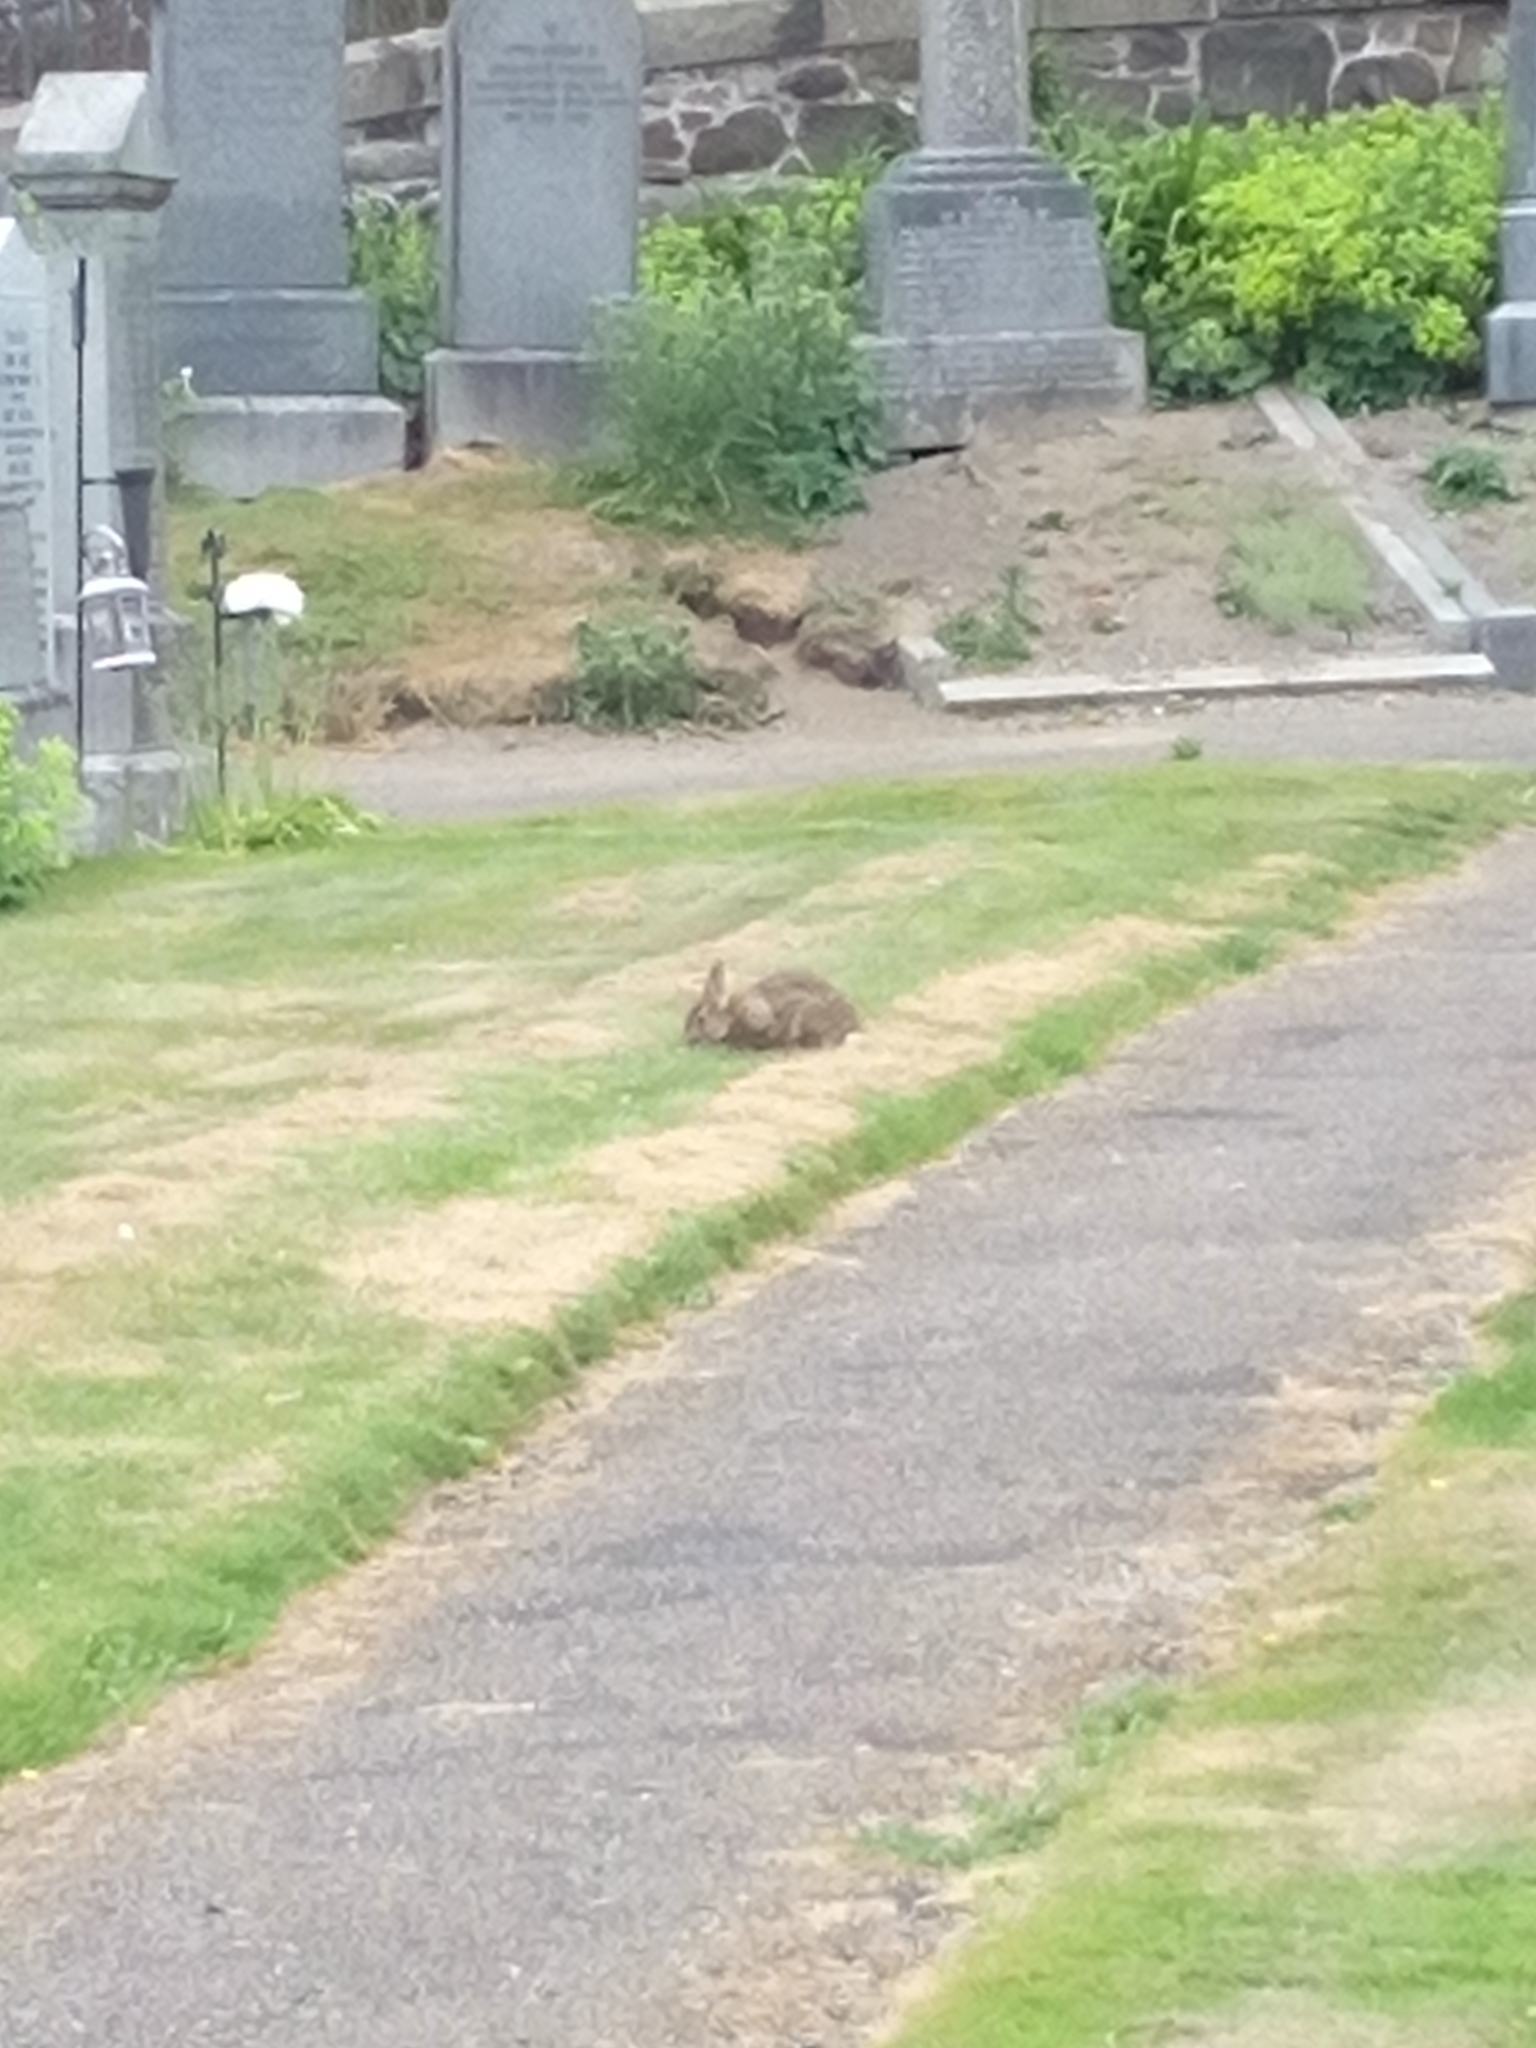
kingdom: Animalia
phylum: Chordata
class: Mammalia
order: Lagomorpha
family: Leporidae
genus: Oryctolagus
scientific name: Oryctolagus cuniculus
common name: European rabbit
